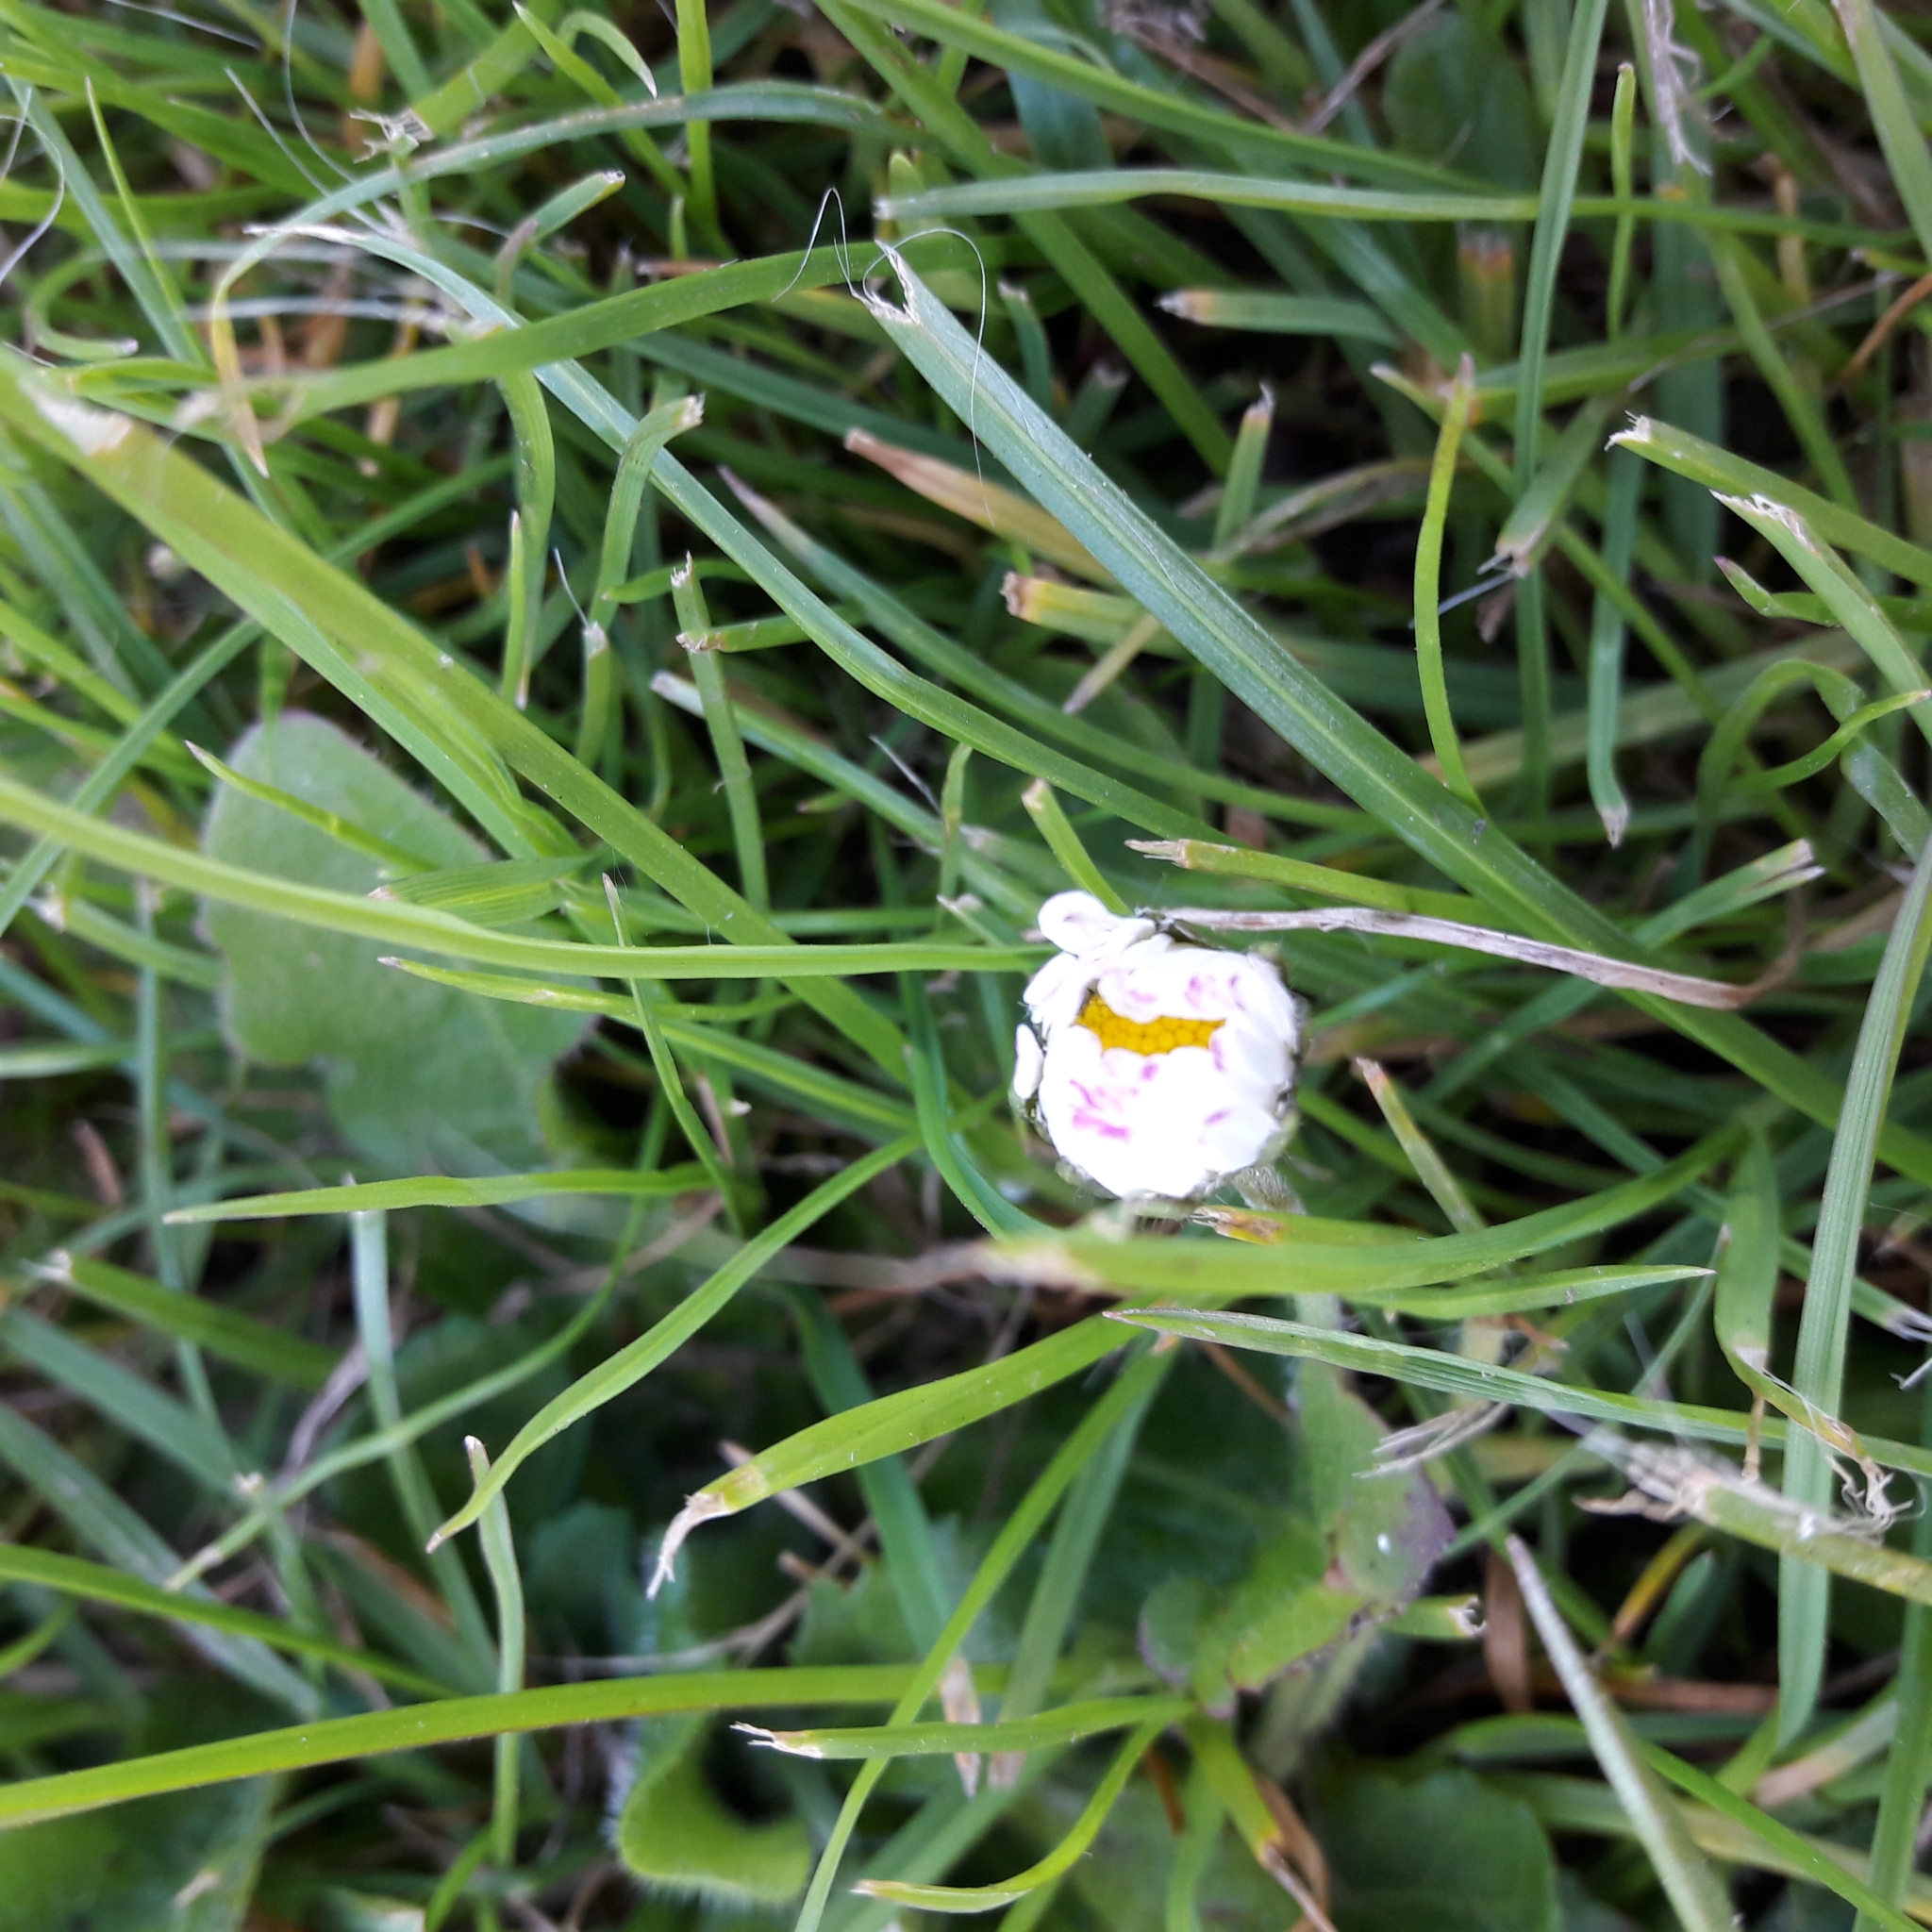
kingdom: Plantae
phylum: Tracheophyta
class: Magnoliopsida
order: Asterales
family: Asteraceae
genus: Bellis
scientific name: Bellis perennis
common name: Lawndaisy
